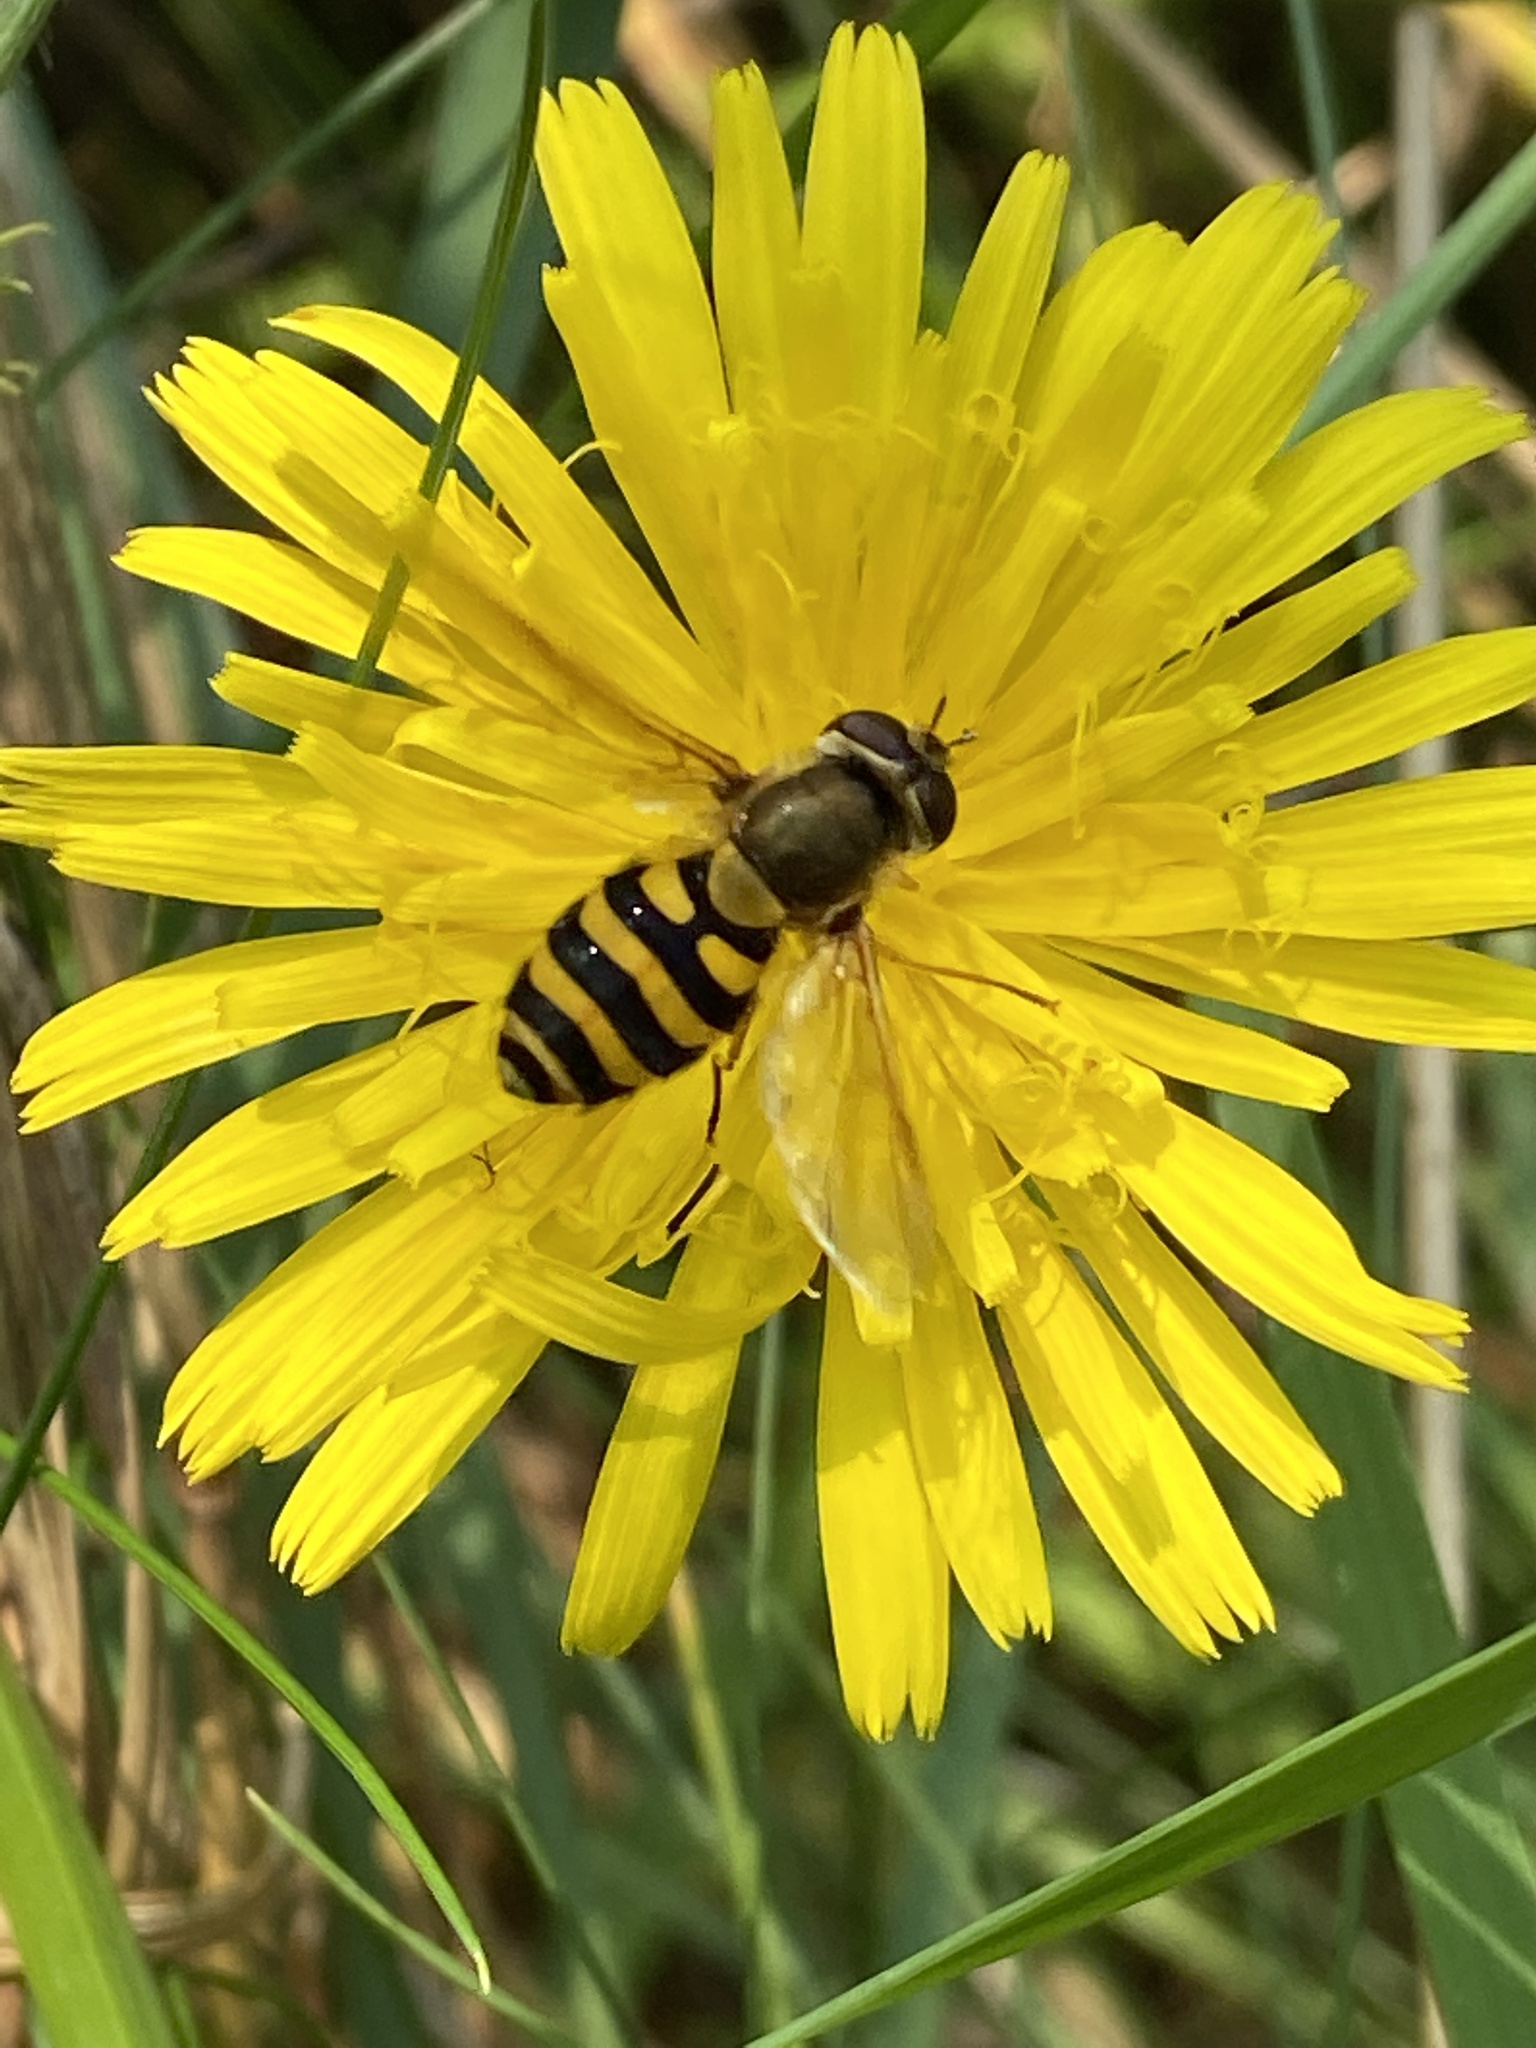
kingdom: Animalia
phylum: Arthropoda
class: Insecta
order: Diptera
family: Syrphidae
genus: Syrphus
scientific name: Syrphus ribesii
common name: Common flower fly
